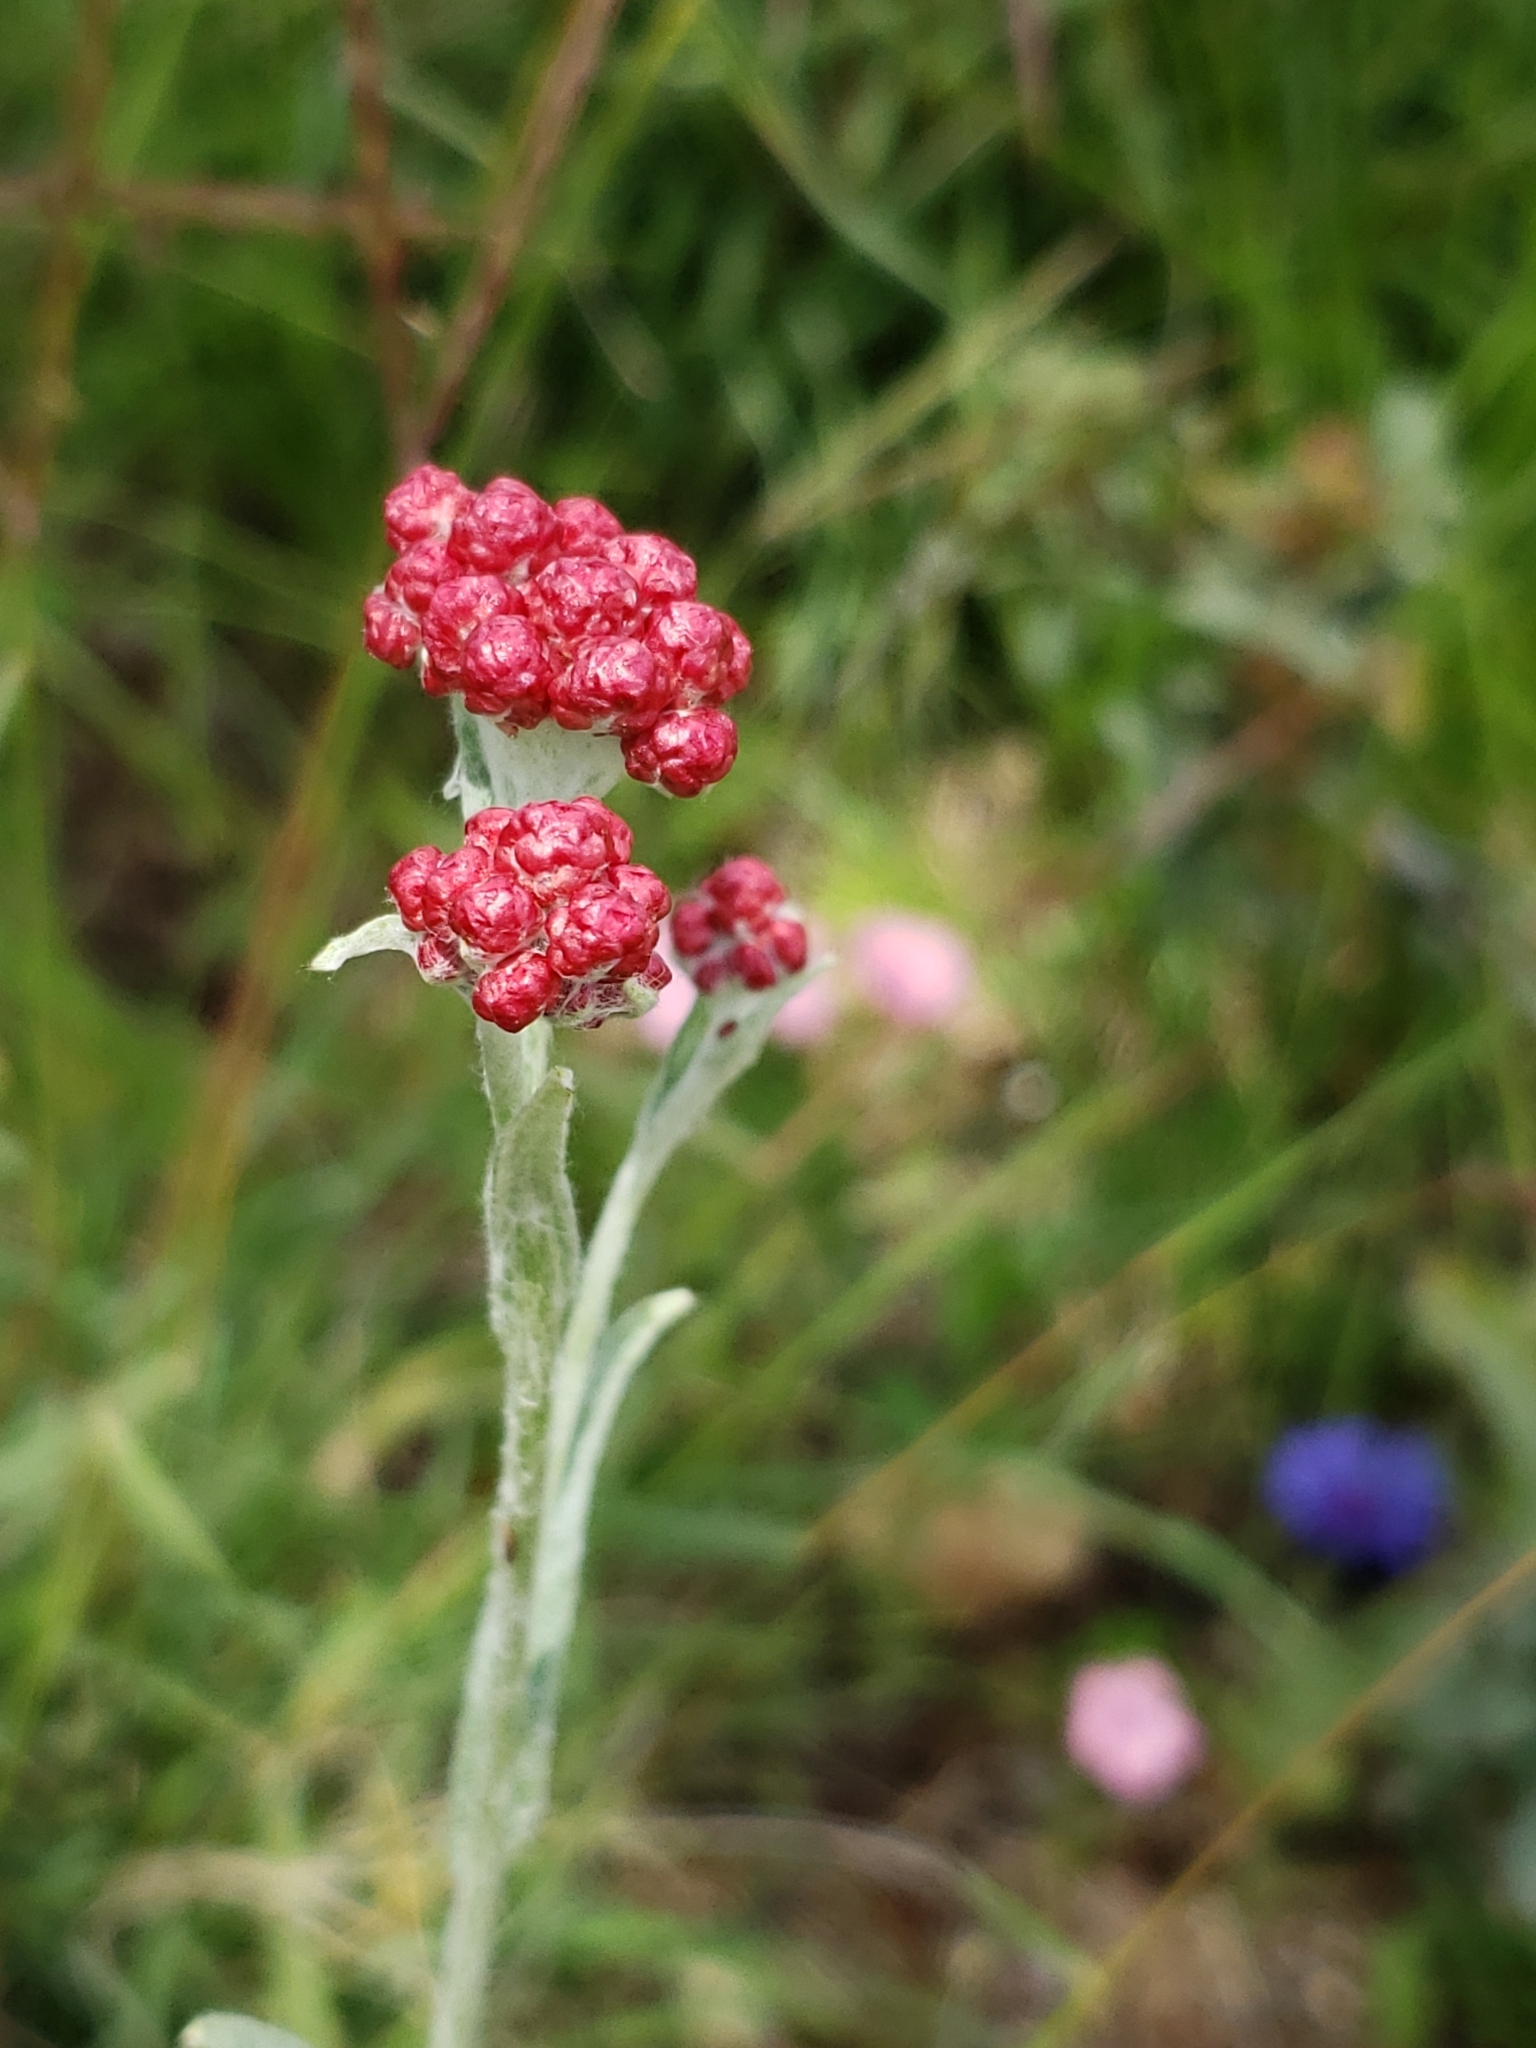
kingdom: Plantae
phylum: Tracheophyta
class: Magnoliopsida
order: Asterales
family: Asteraceae
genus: Helichrysum
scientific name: Helichrysum sanguineum
